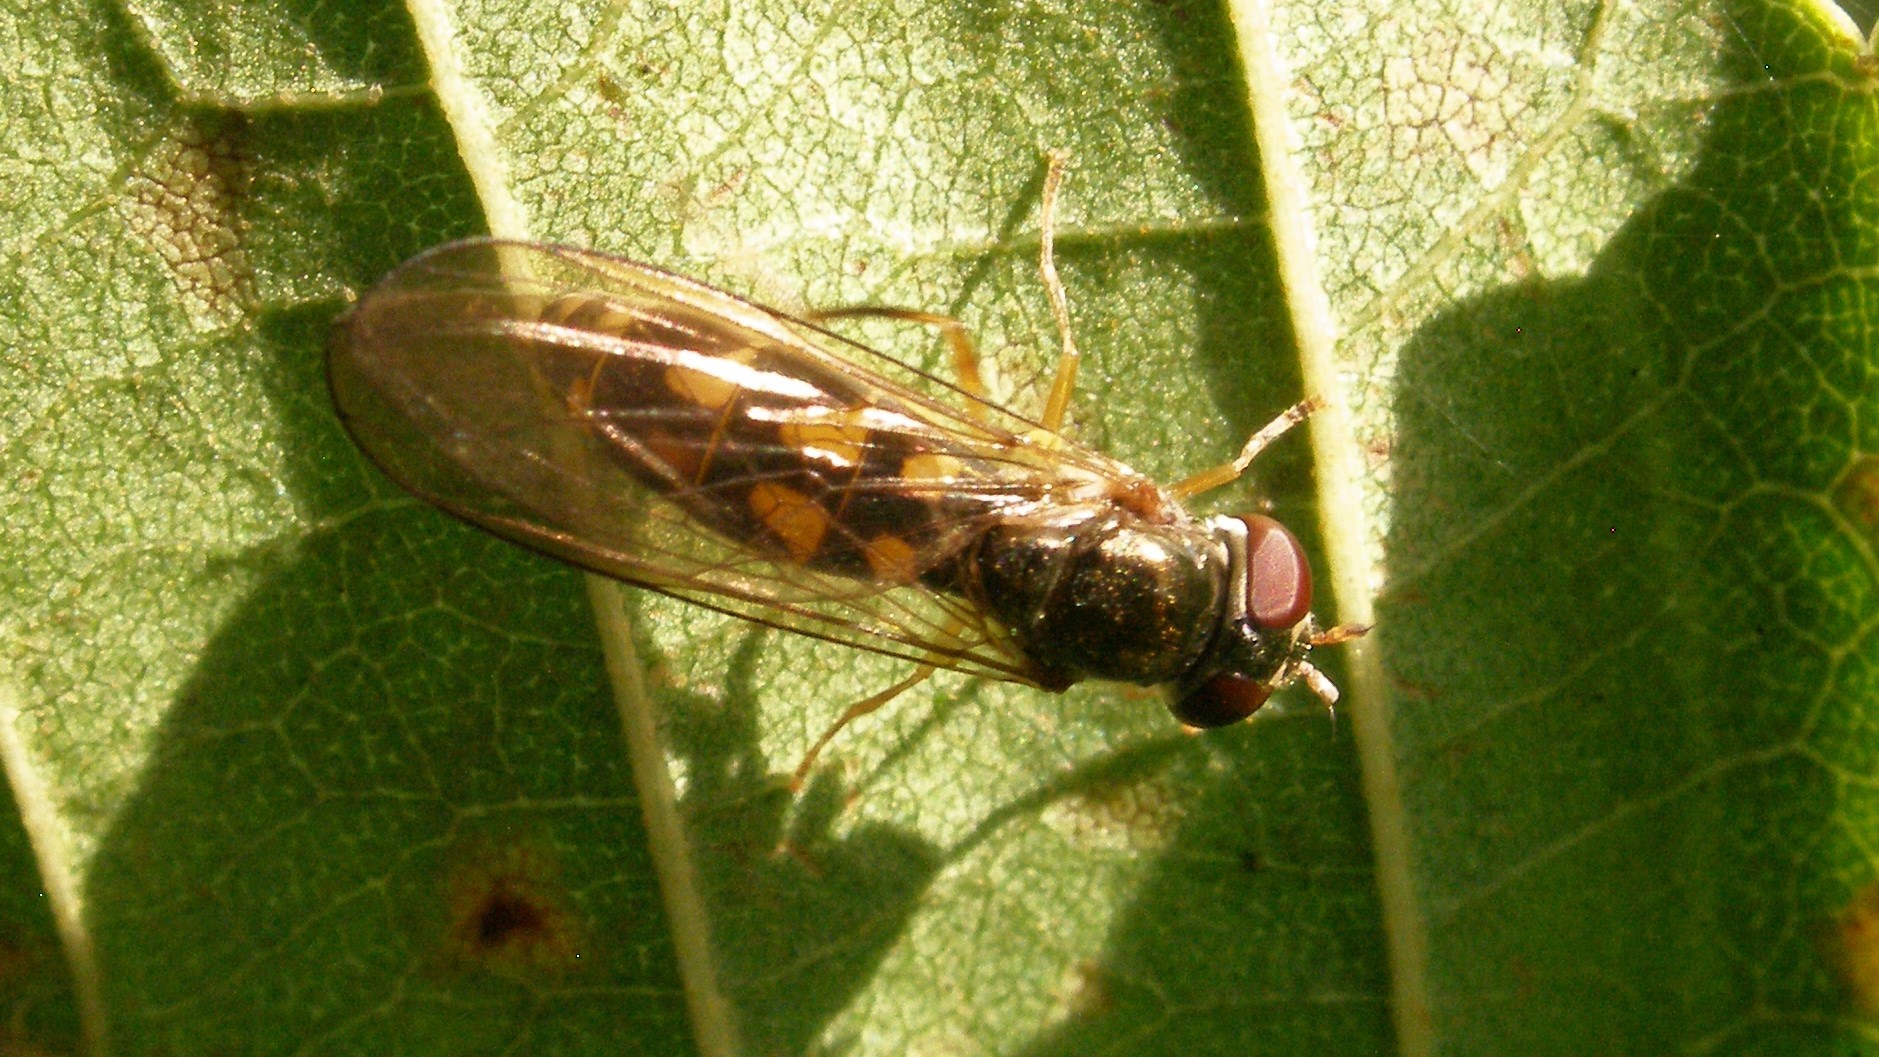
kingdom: Animalia
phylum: Arthropoda
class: Insecta
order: Diptera
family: Syrphidae
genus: Melanostoma
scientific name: Melanostoma scalare
